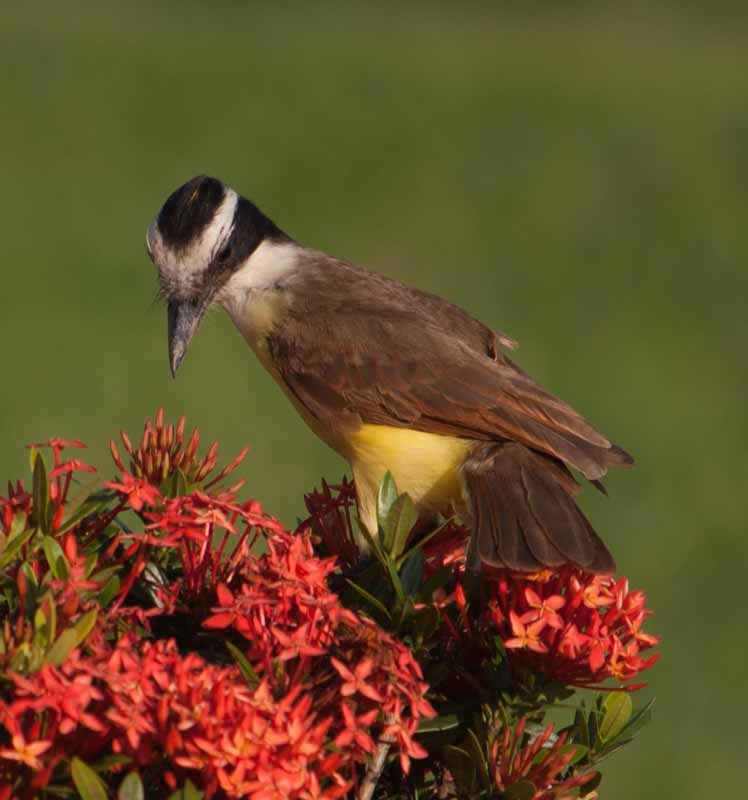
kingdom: Animalia
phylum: Chordata
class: Aves
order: Passeriformes
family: Tyrannidae
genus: Pitangus
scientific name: Pitangus sulphuratus
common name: Great kiskadee
